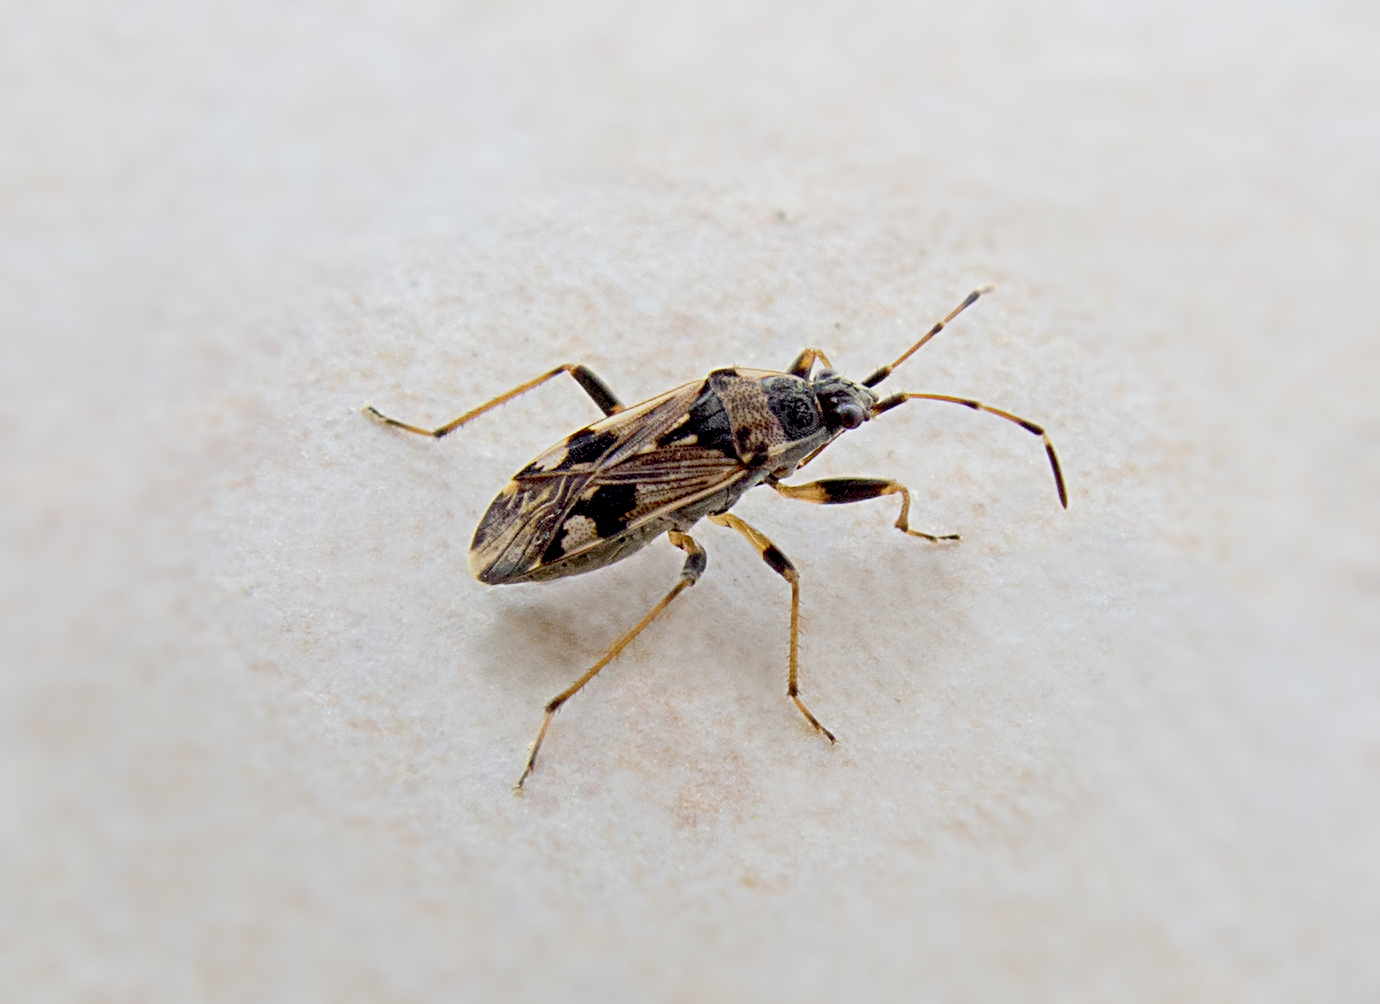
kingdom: Animalia
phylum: Arthropoda
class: Insecta
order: Hemiptera
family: Rhyparochromidae
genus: Beosus
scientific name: Beosus maritimus
